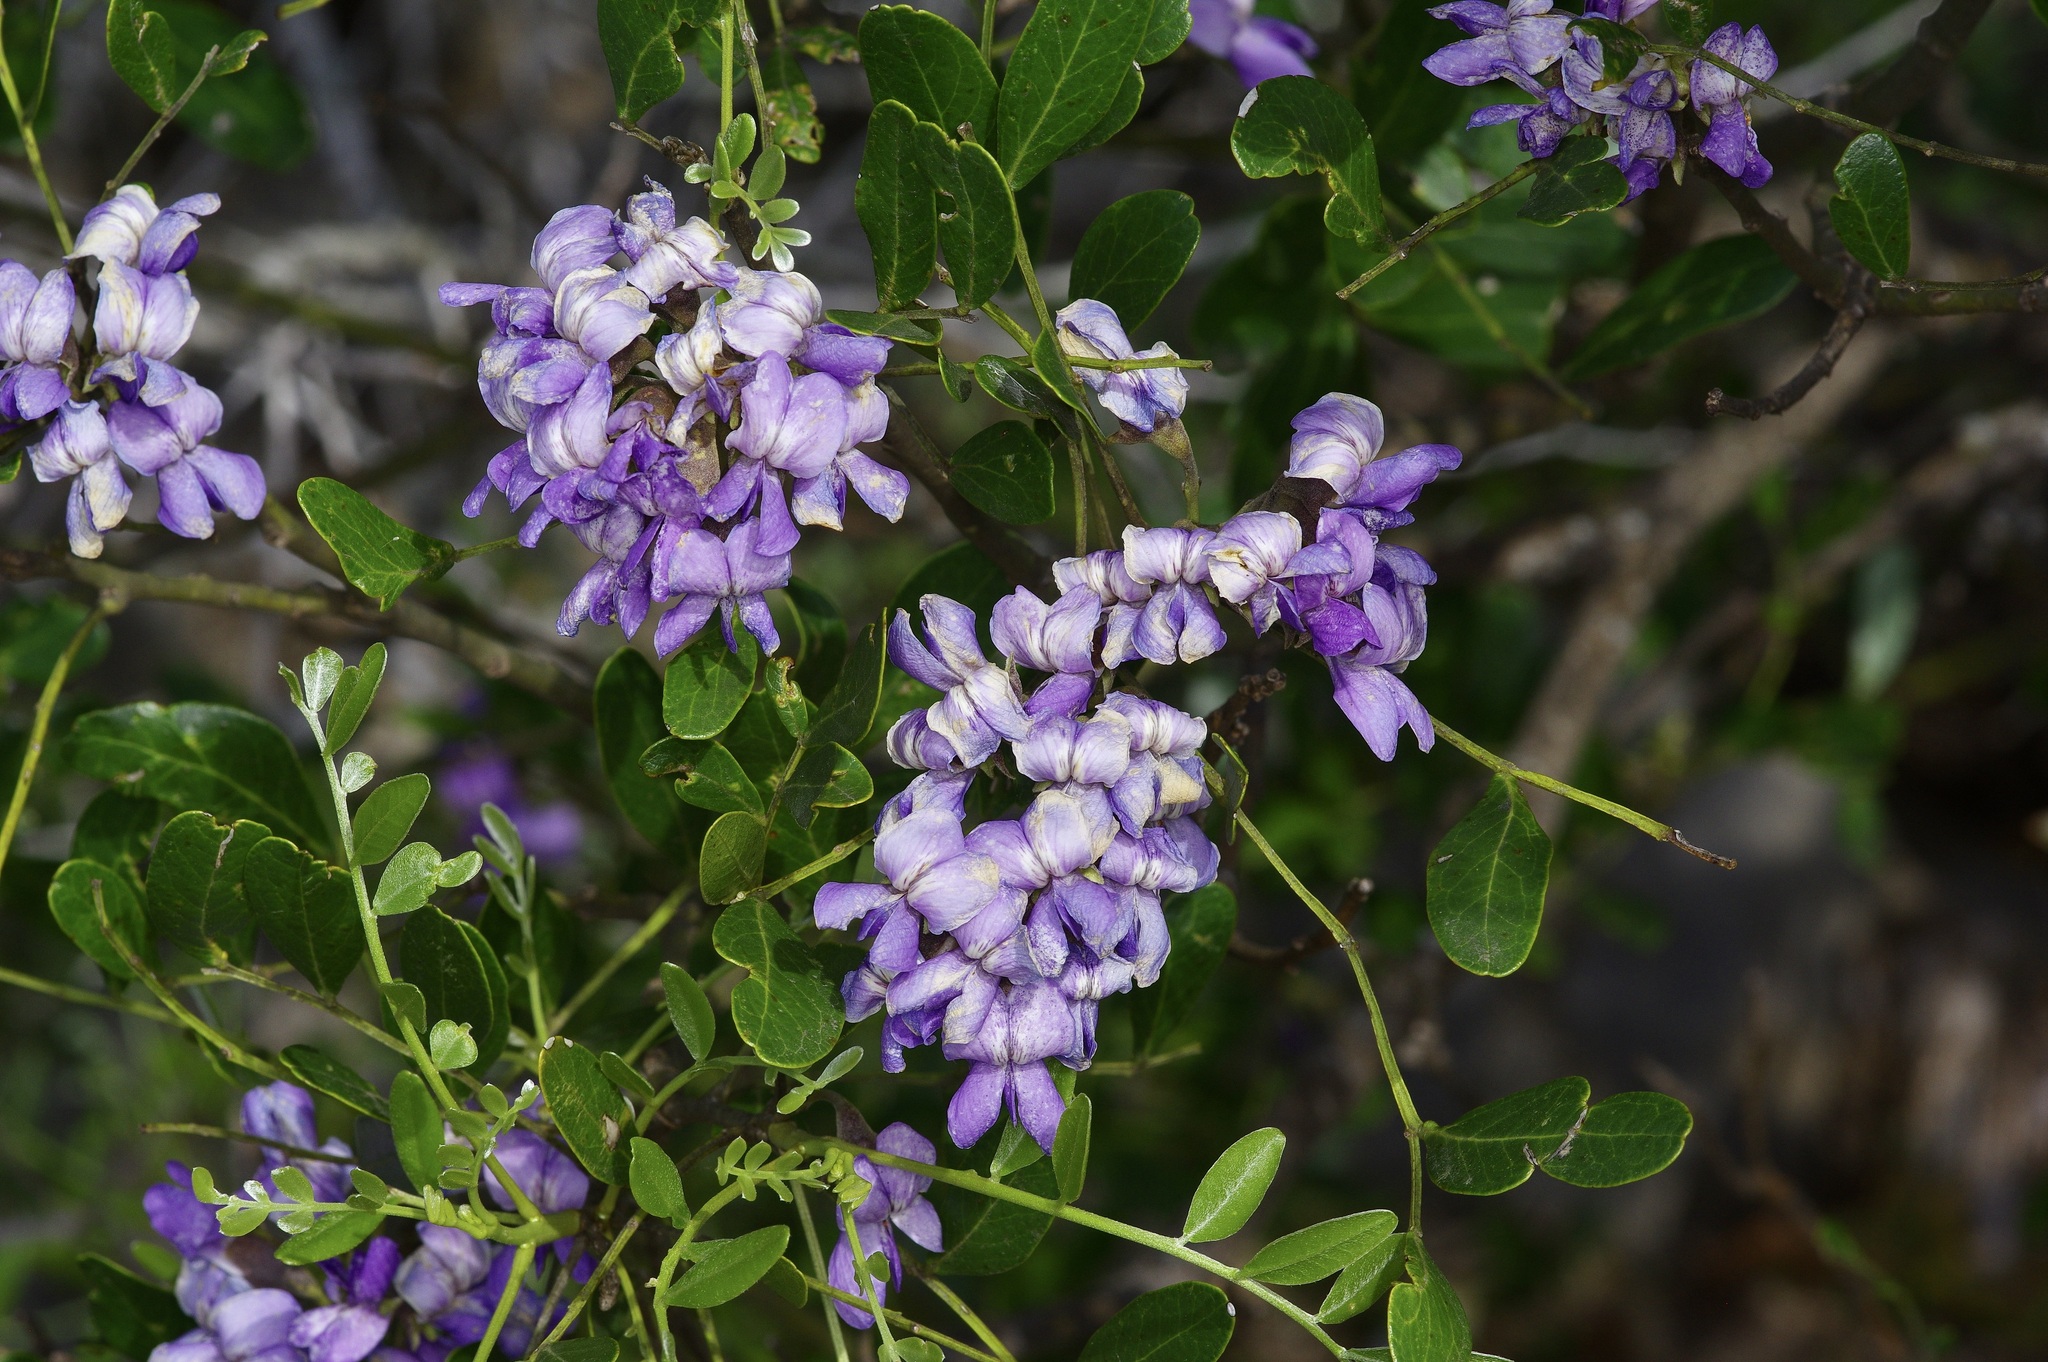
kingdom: Plantae
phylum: Tracheophyta
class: Magnoliopsida
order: Fabales
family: Fabaceae
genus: Dermatophyllum
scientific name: Dermatophyllum secundiflorum
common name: Texas-mountain-laurel
